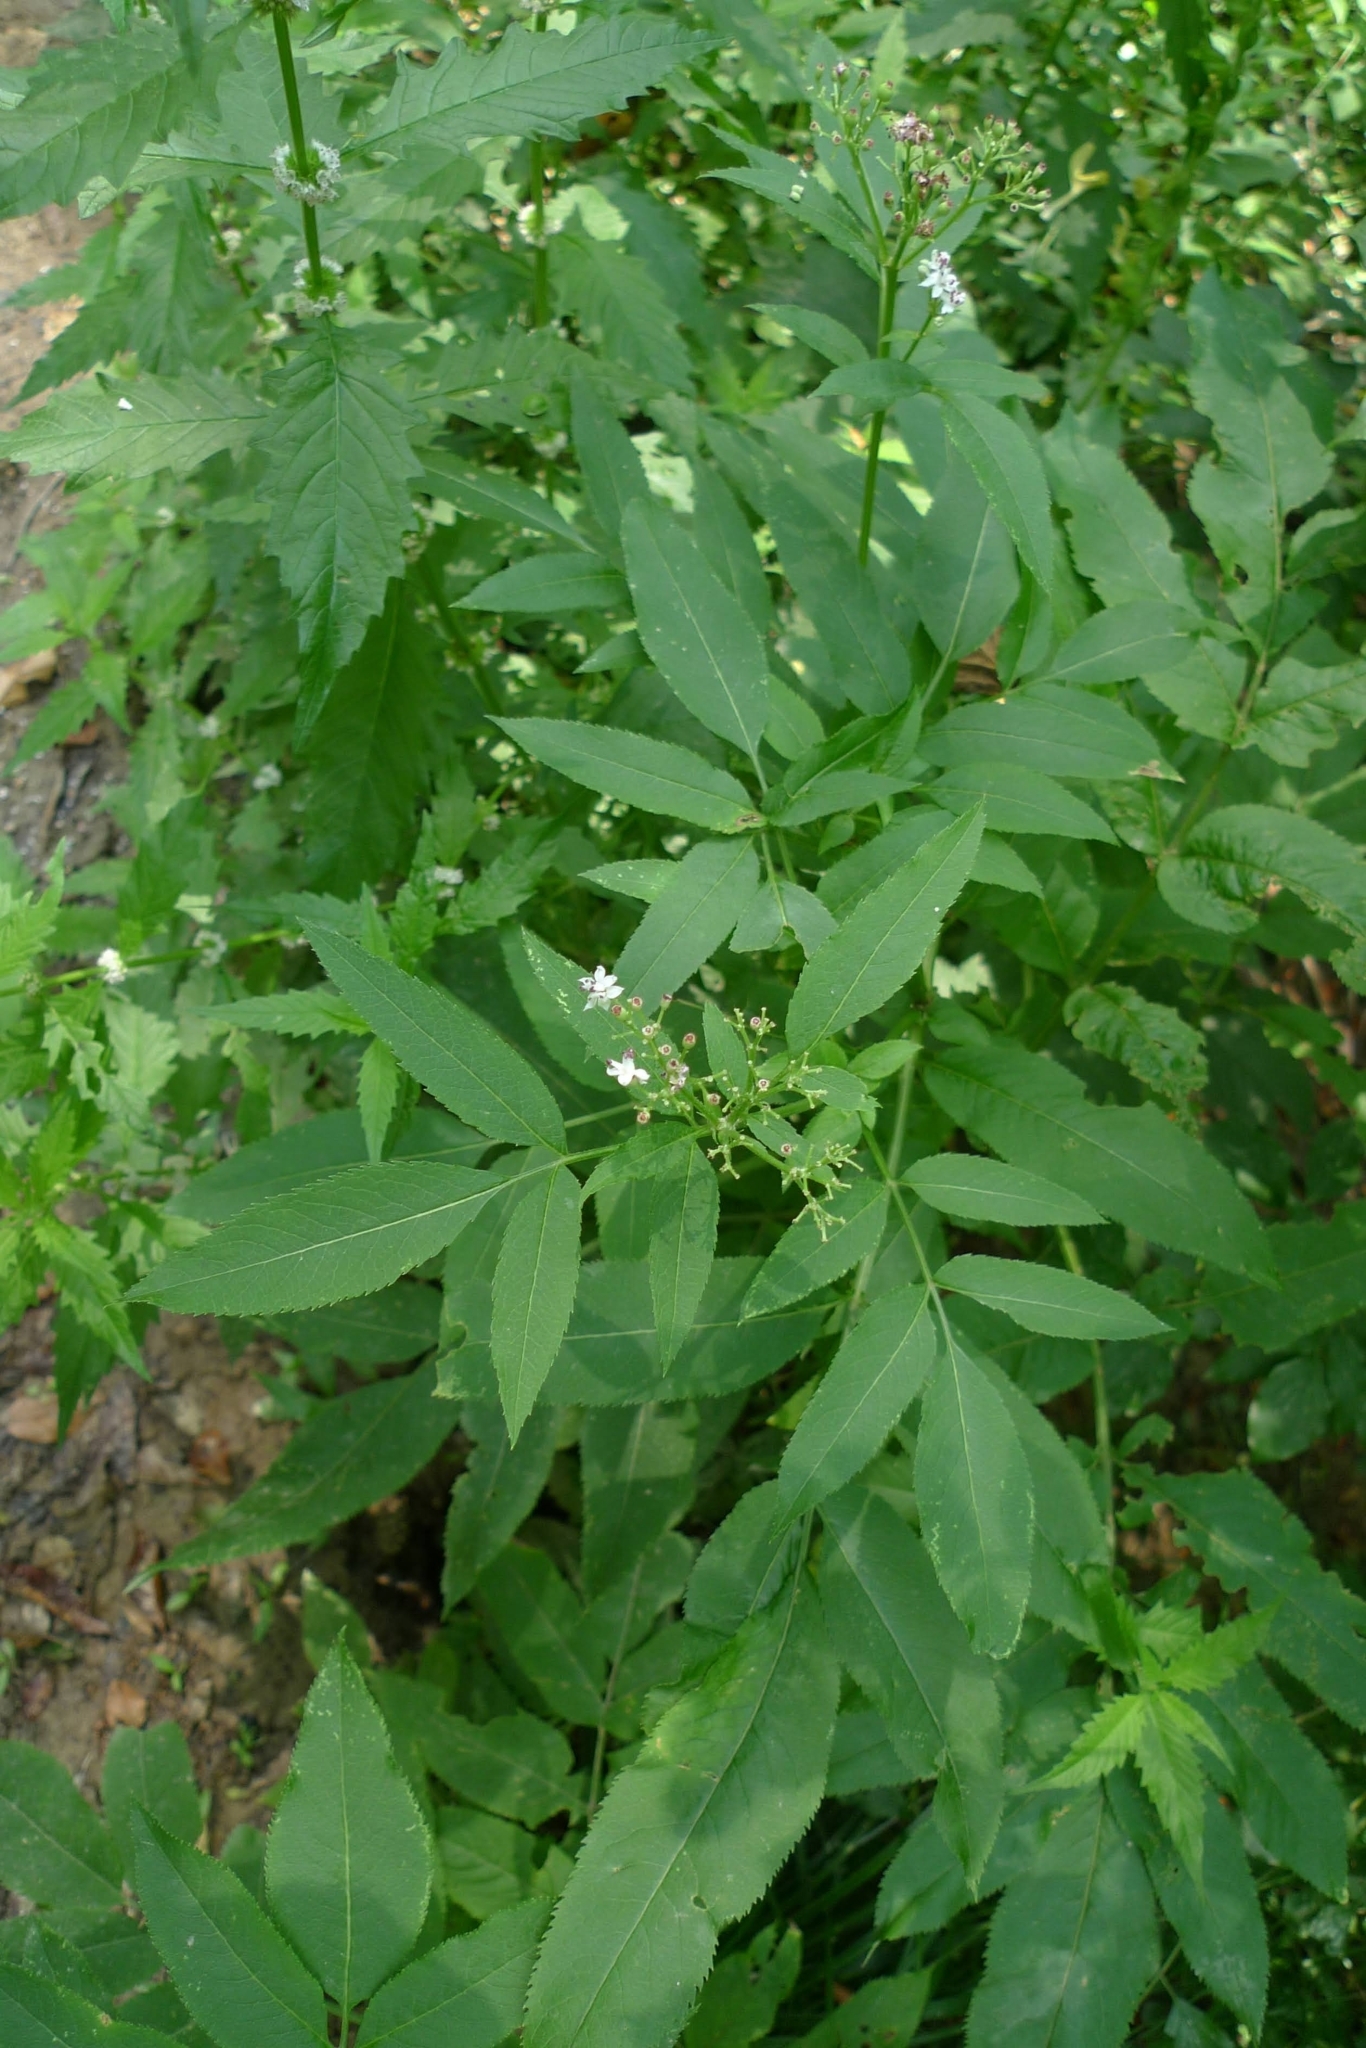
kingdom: Plantae
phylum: Tracheophyta
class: Magnoliopsida
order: Dipsacales
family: Viburnaceae
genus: Sambucus
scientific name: Sambucus ebulus
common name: Dwarf elder
